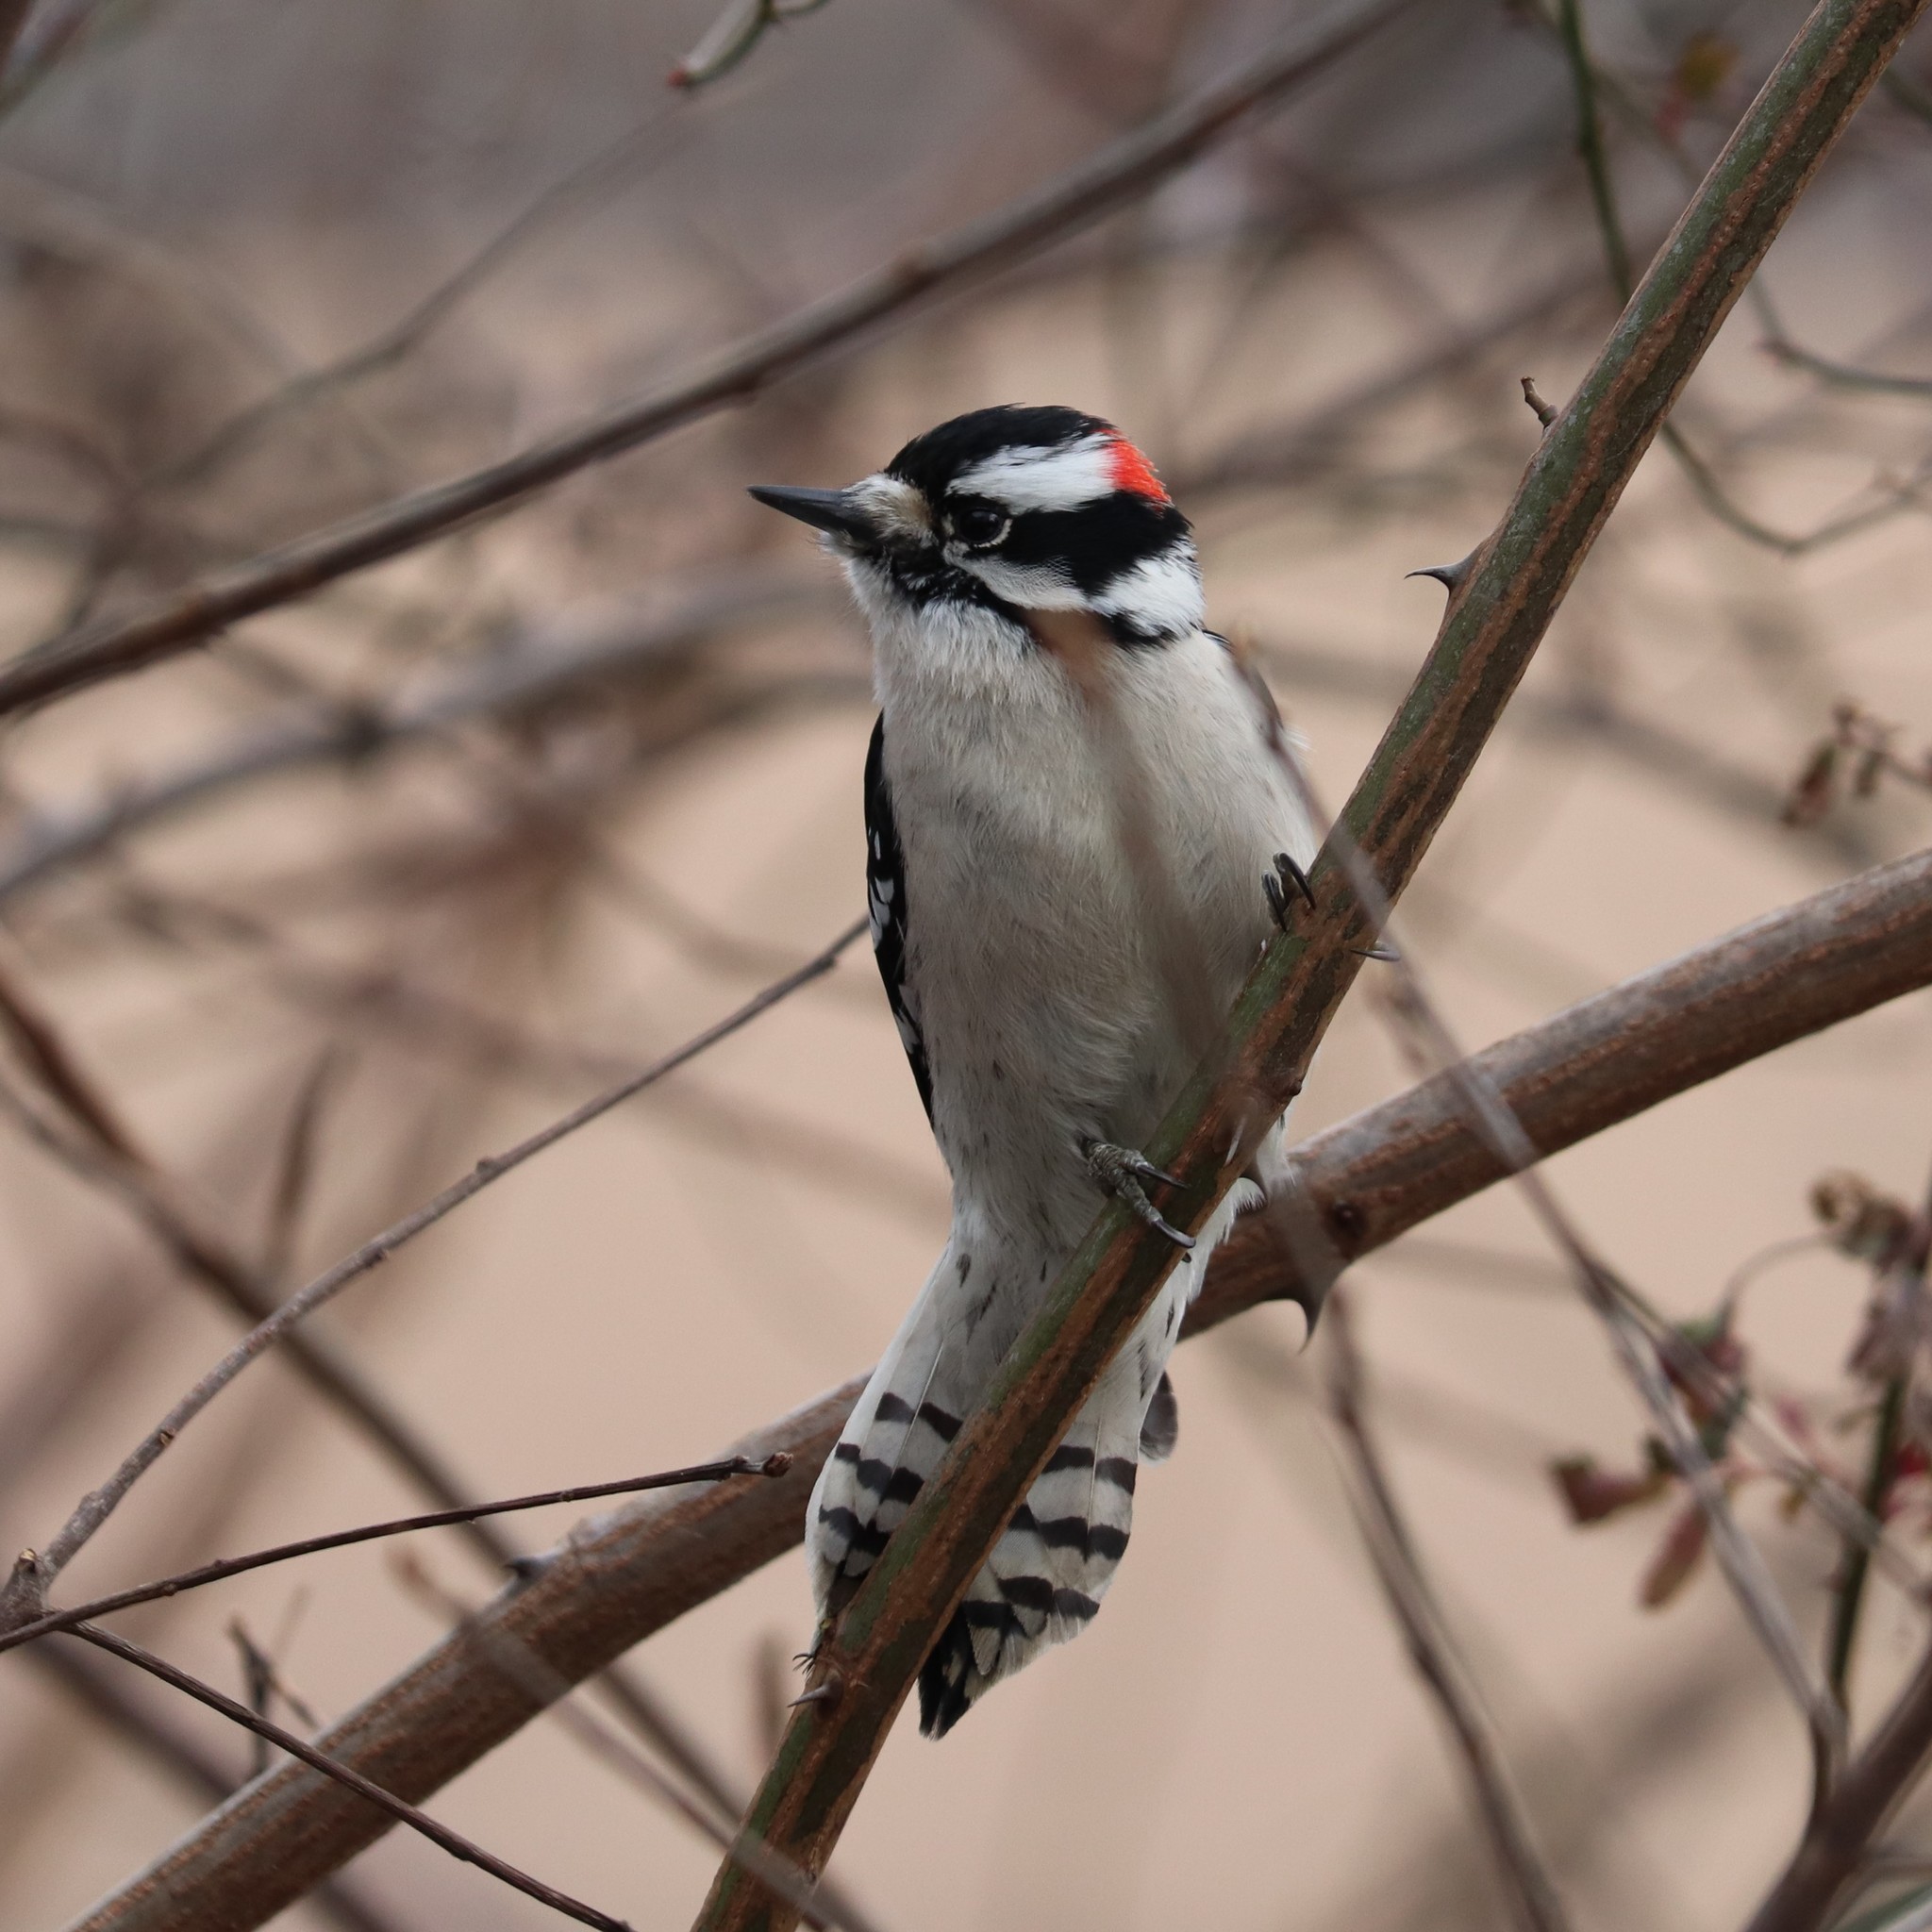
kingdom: Animalia
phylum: Chordata
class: Aves
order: Piciformes
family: Picidae
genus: Dryobates
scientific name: Dryobates pubescens
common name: Downy woodpecker
